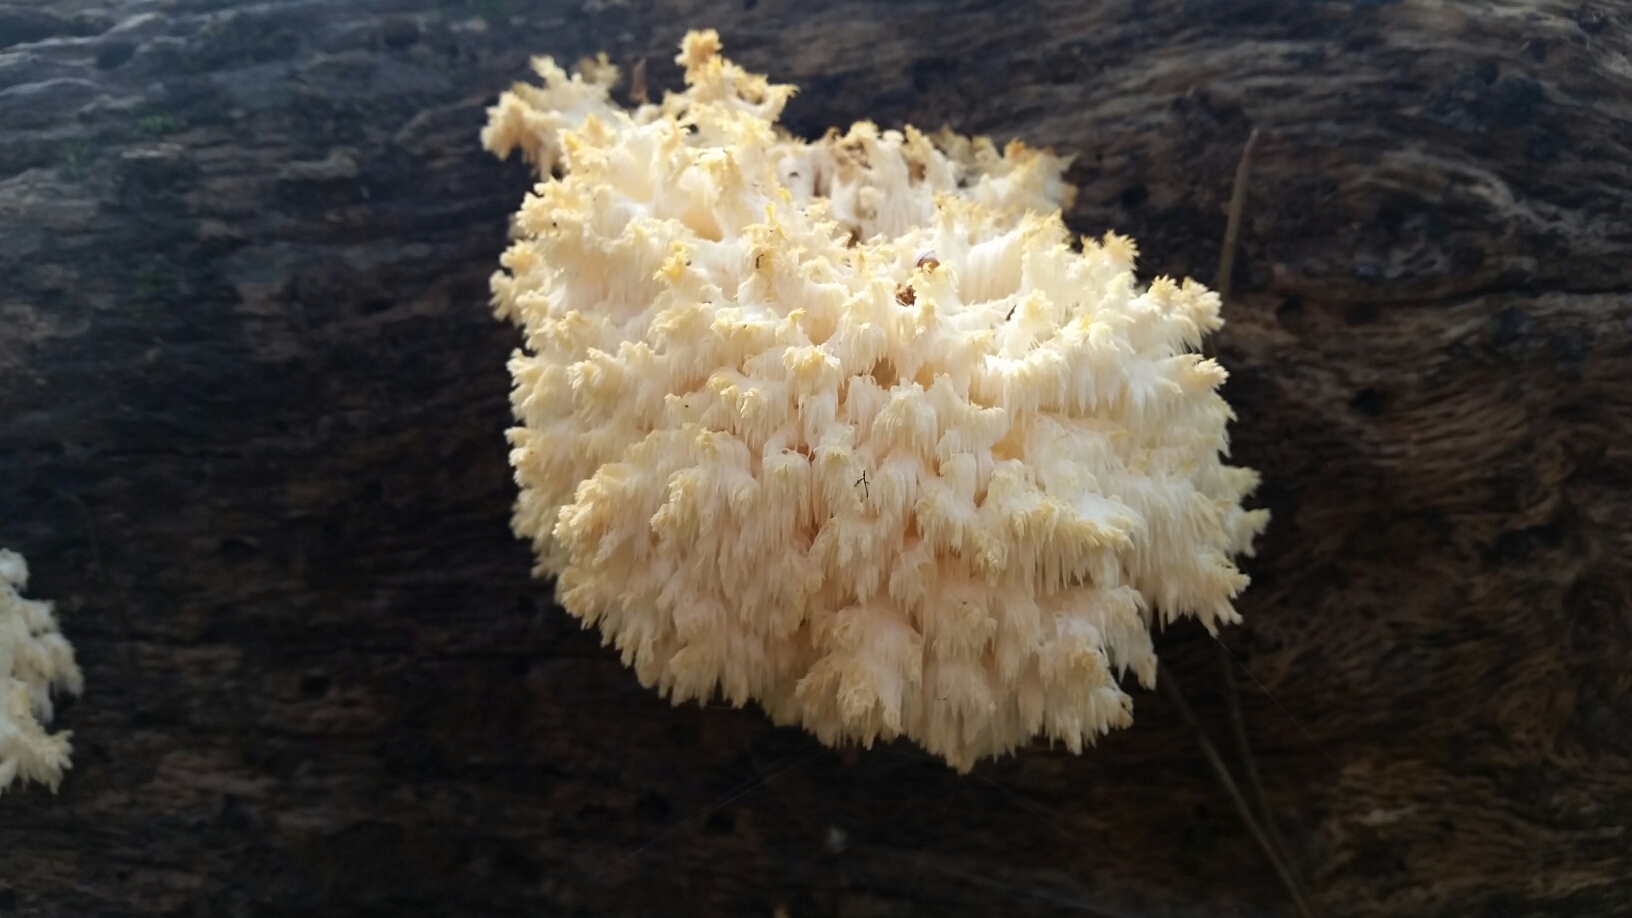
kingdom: Fungi
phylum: Basidiomycota
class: Agaricomycetes
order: Russulales
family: Hericiaceae
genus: Hericium
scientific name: Hericium coralloides
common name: Coral tooth
